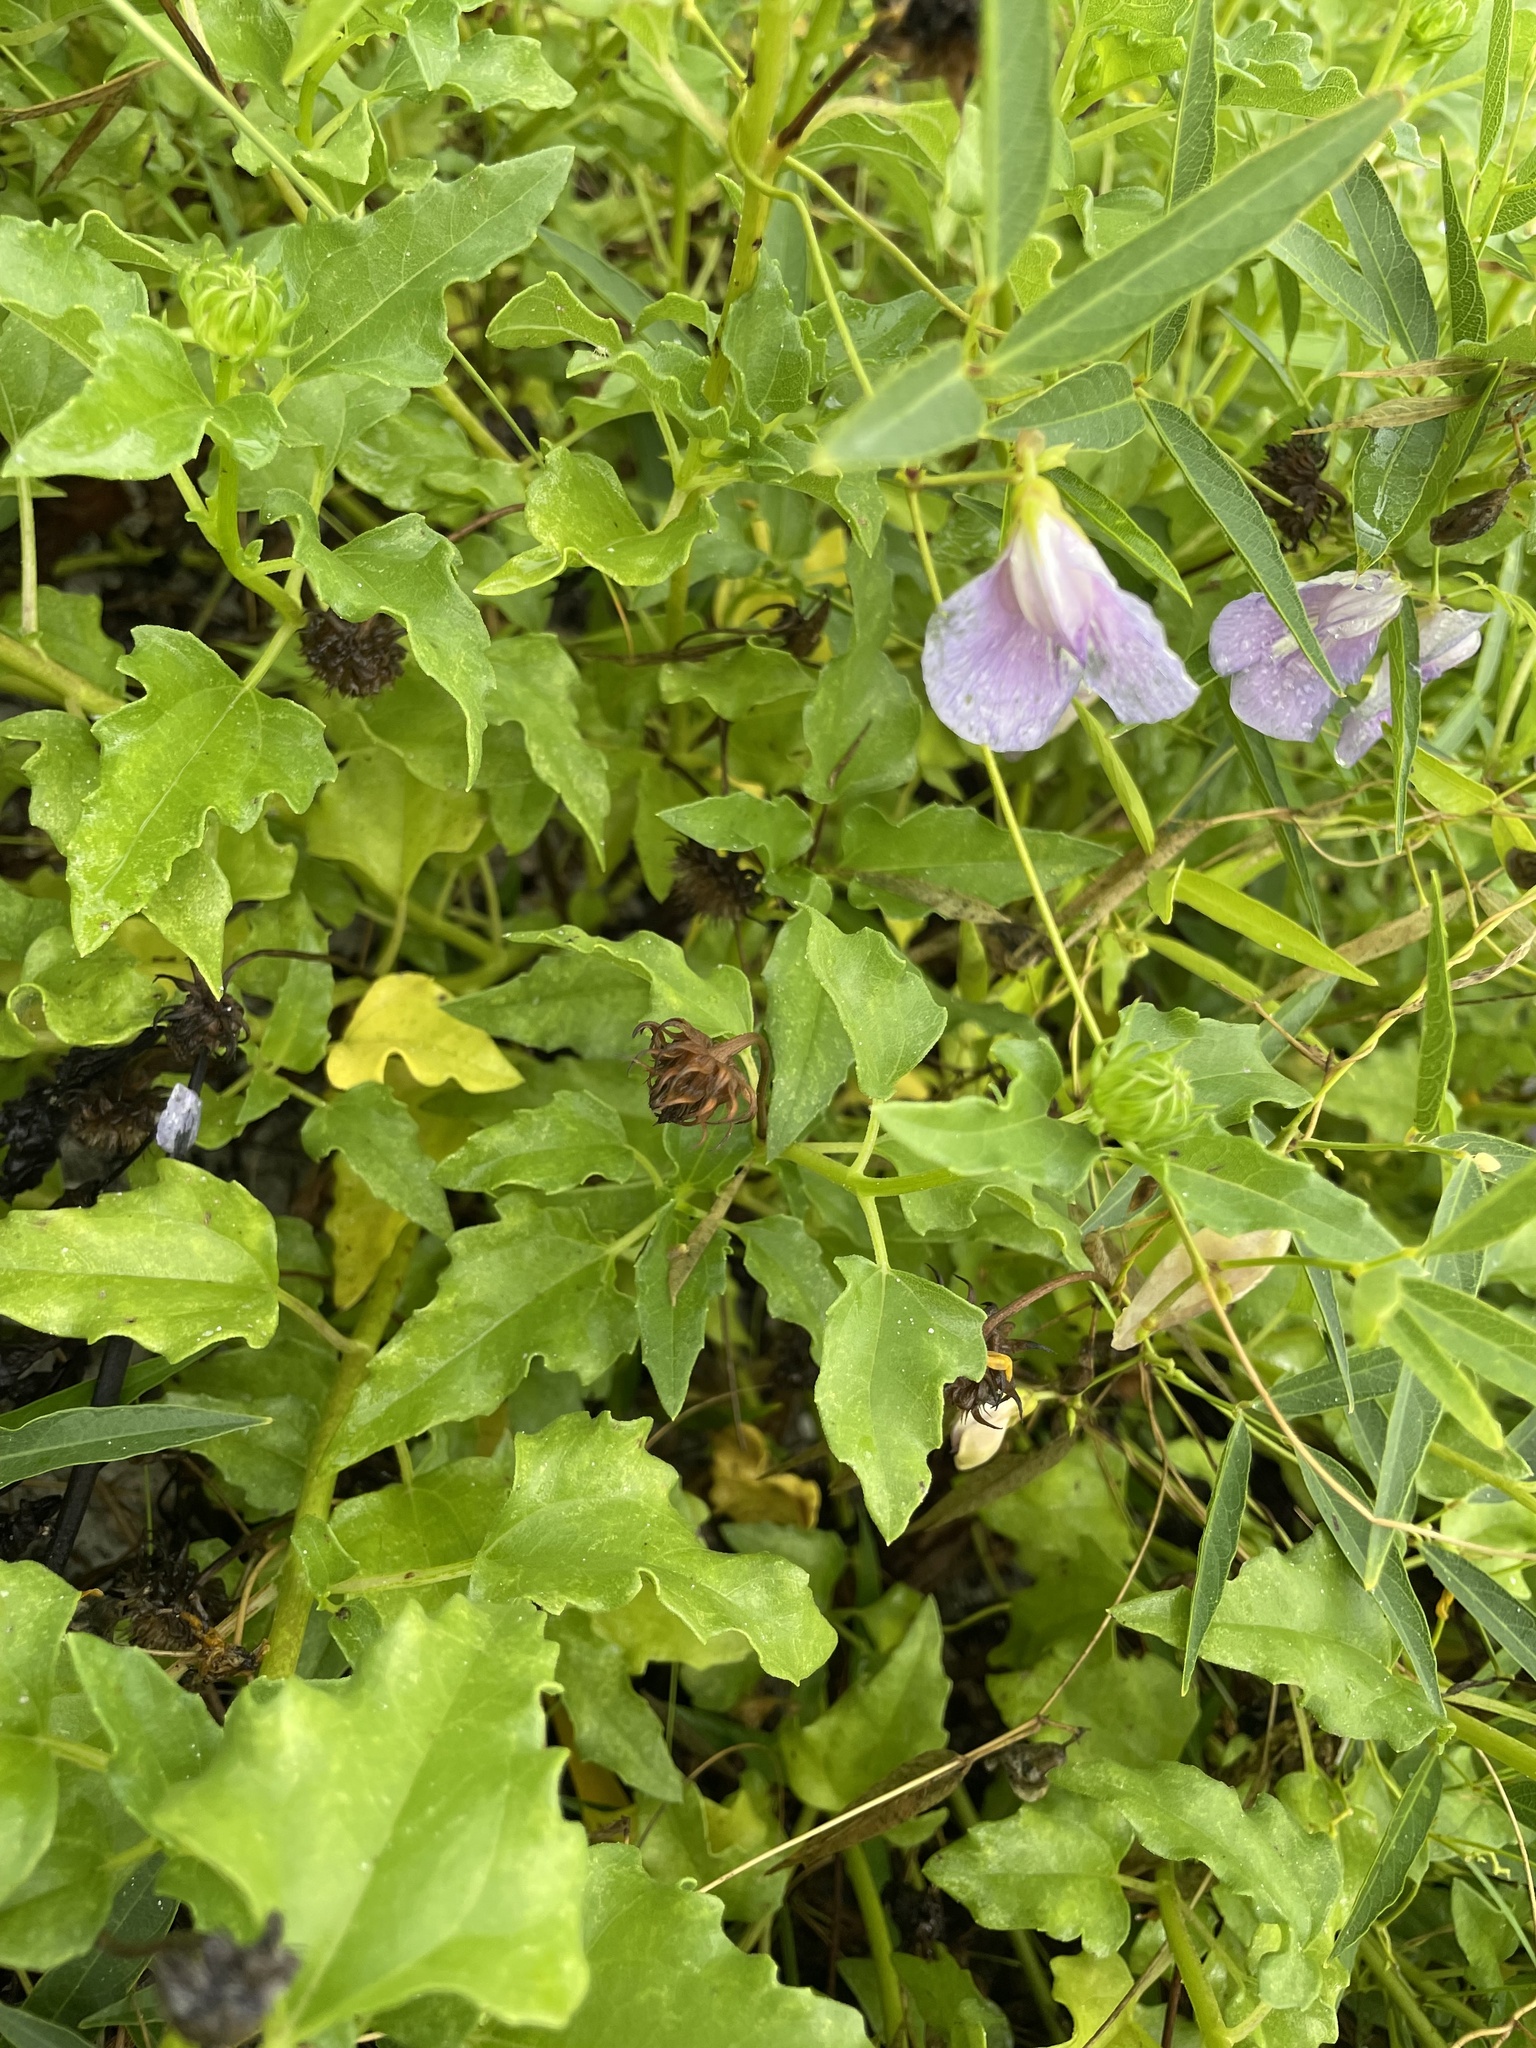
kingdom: Plantae
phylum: Tracheophyta
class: Magnoliopsida
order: Fabales
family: Fabaceae
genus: Centrosema
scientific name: Centrosema virginianum
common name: Butterfly-pea
